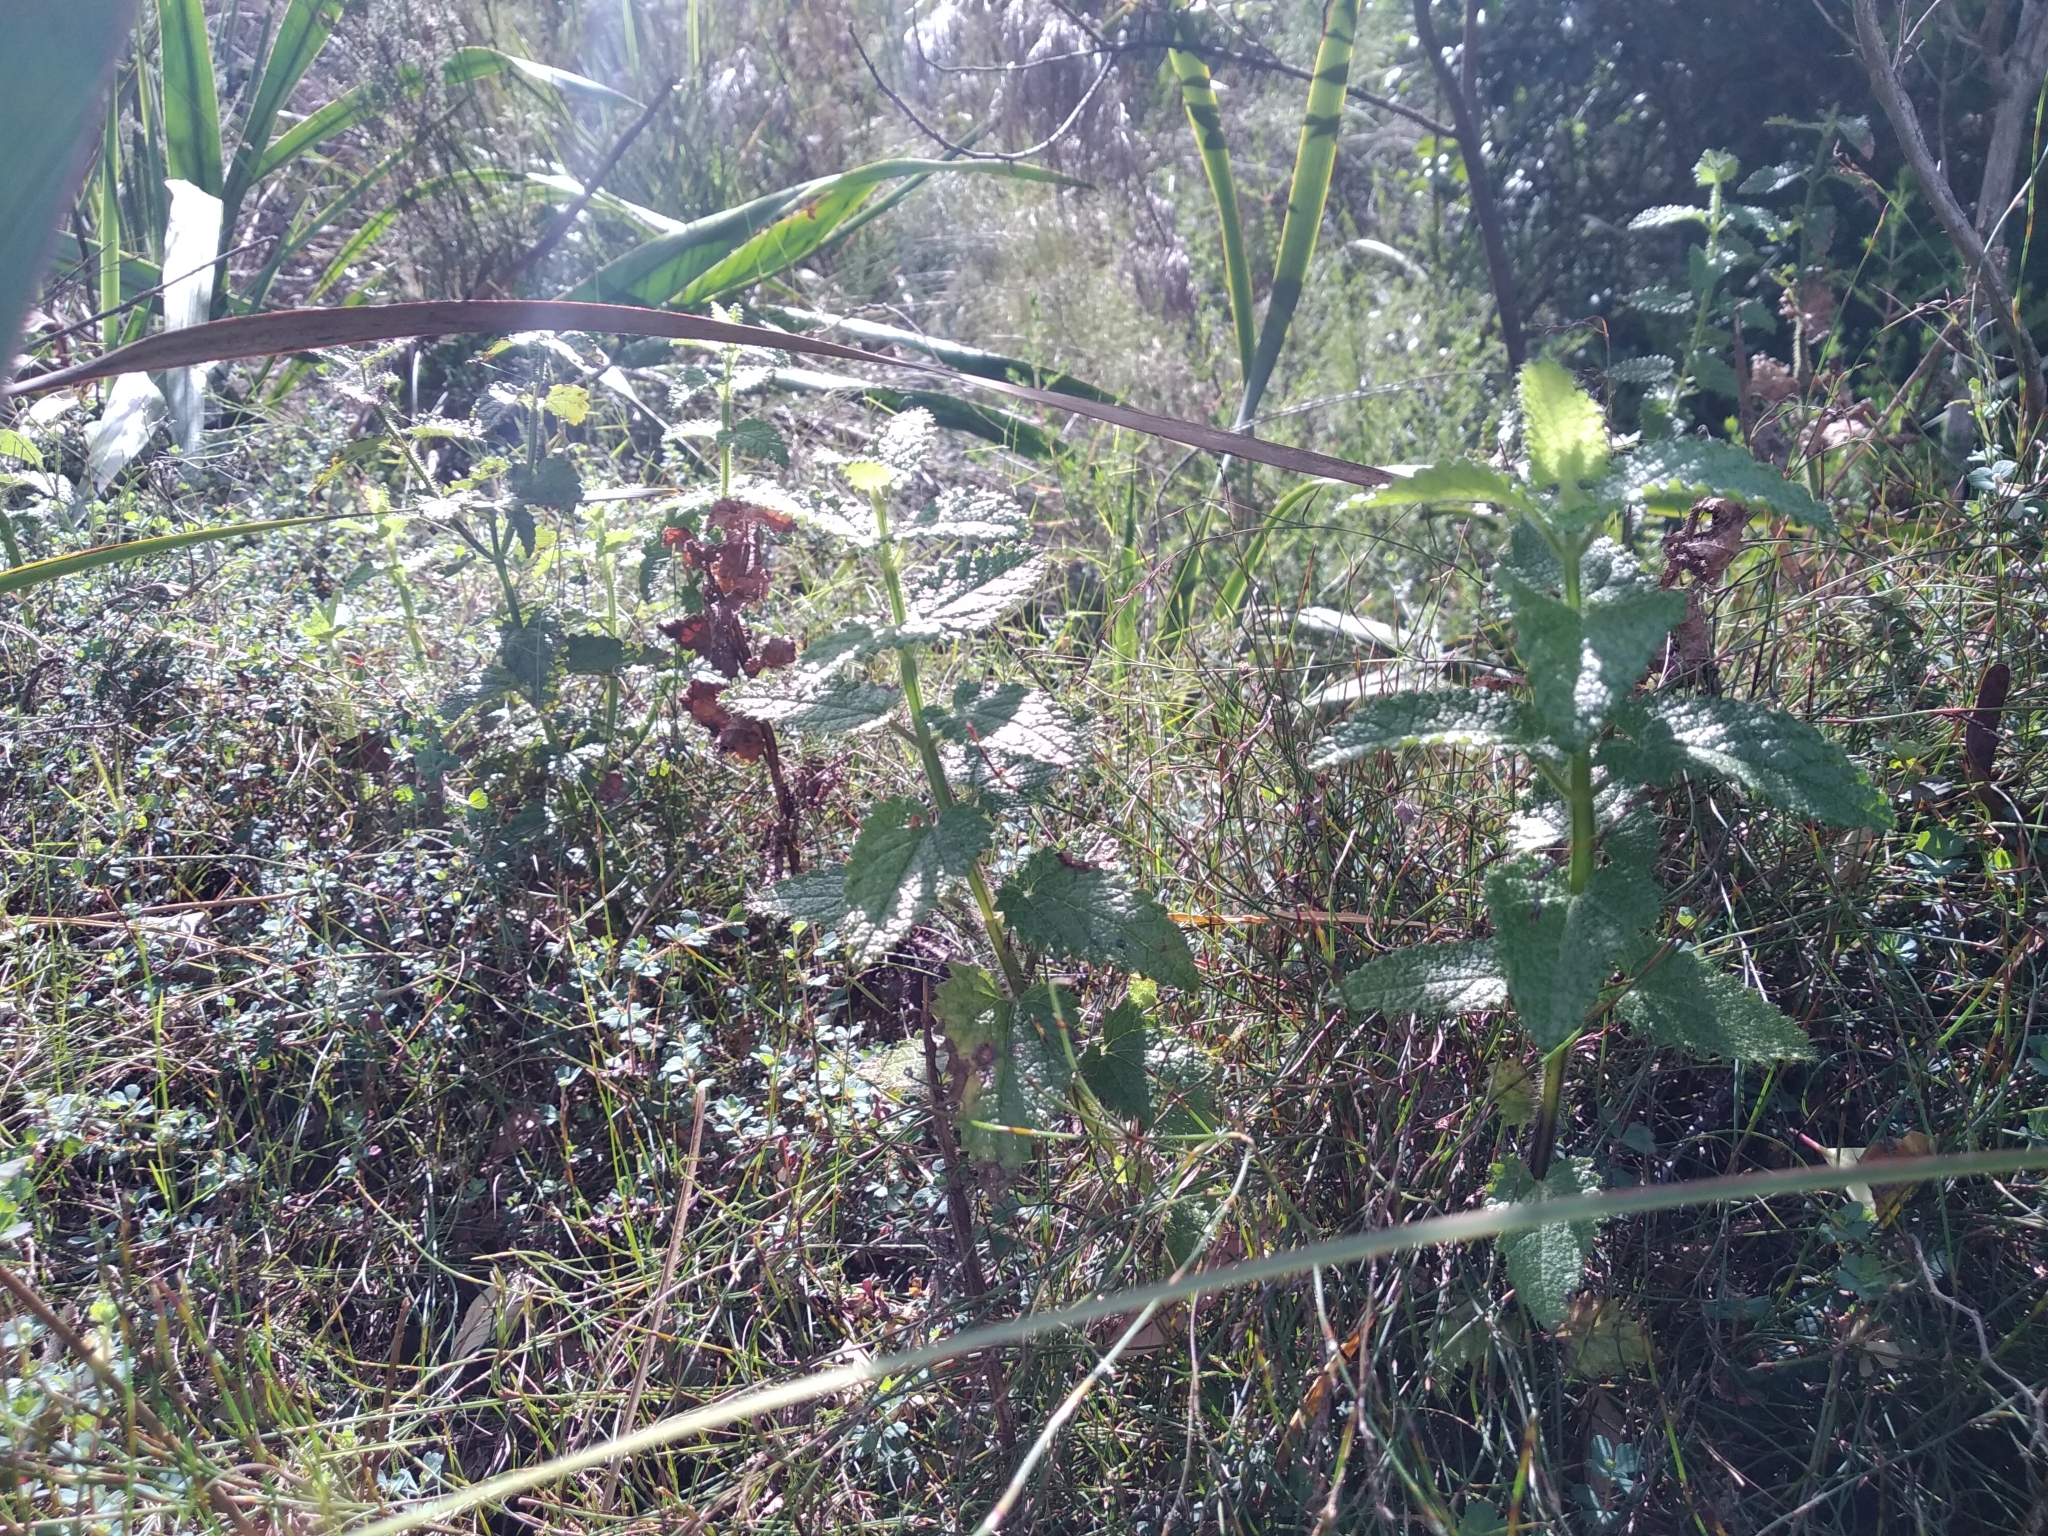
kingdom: Plantae
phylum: Tracheophyta
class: Magnoliopsida
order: Lamiales
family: Lamiaceae
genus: Stachys
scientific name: Stachys thunbergii
